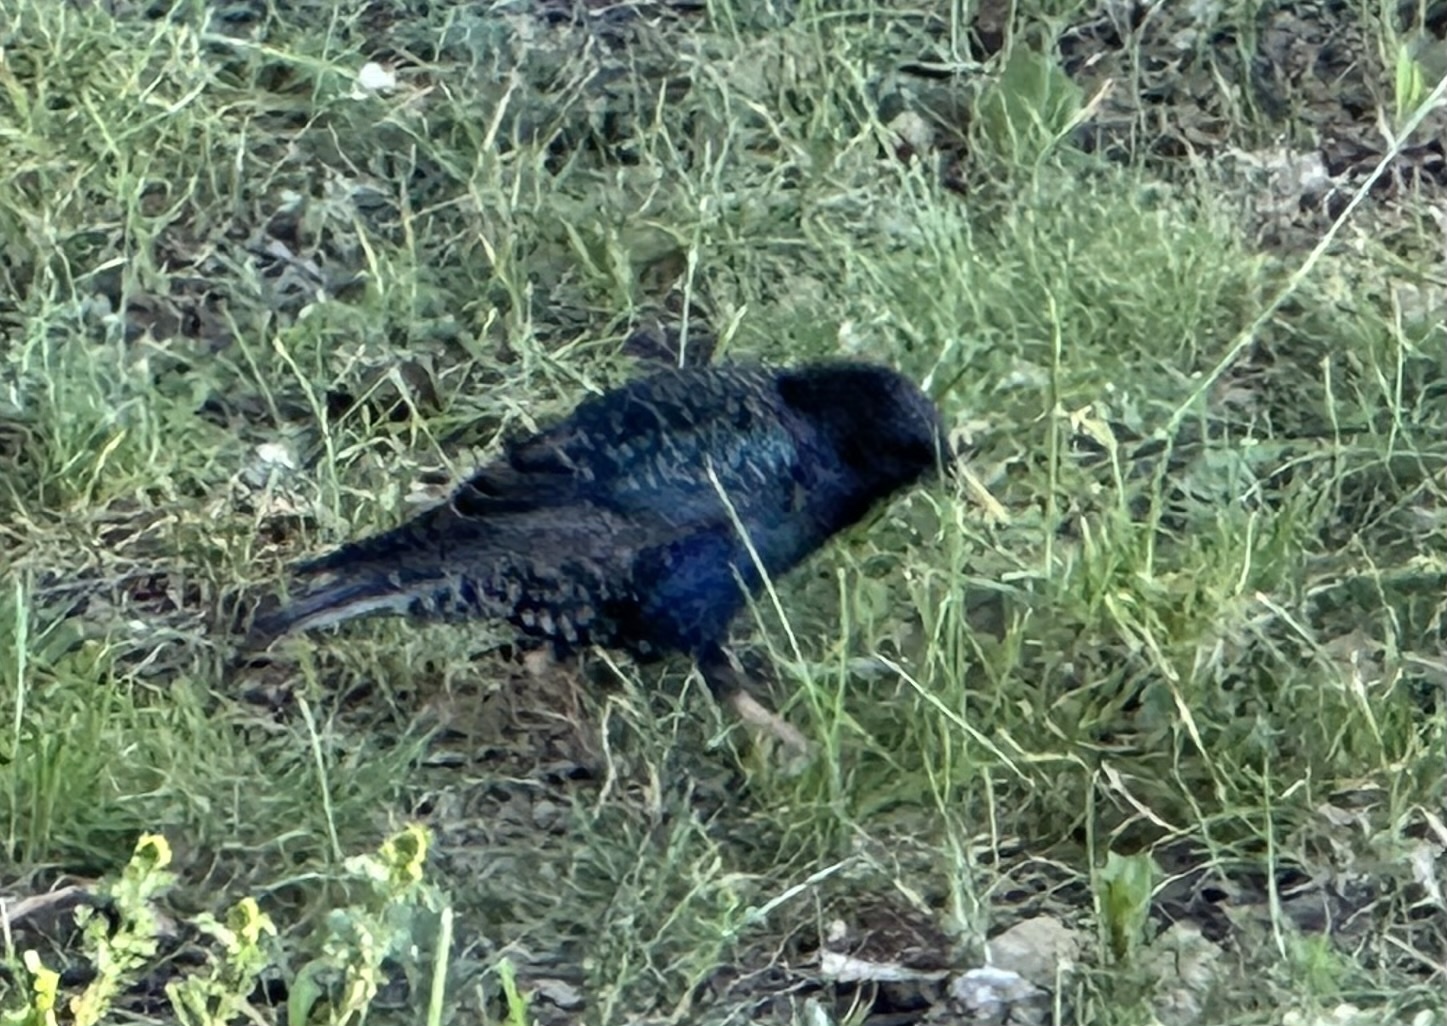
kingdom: Animalia
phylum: Chordata
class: Aves
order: Passeriformes
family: Sturnidae
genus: Sturnus
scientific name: Sturnus vulgaris
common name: Common starling
